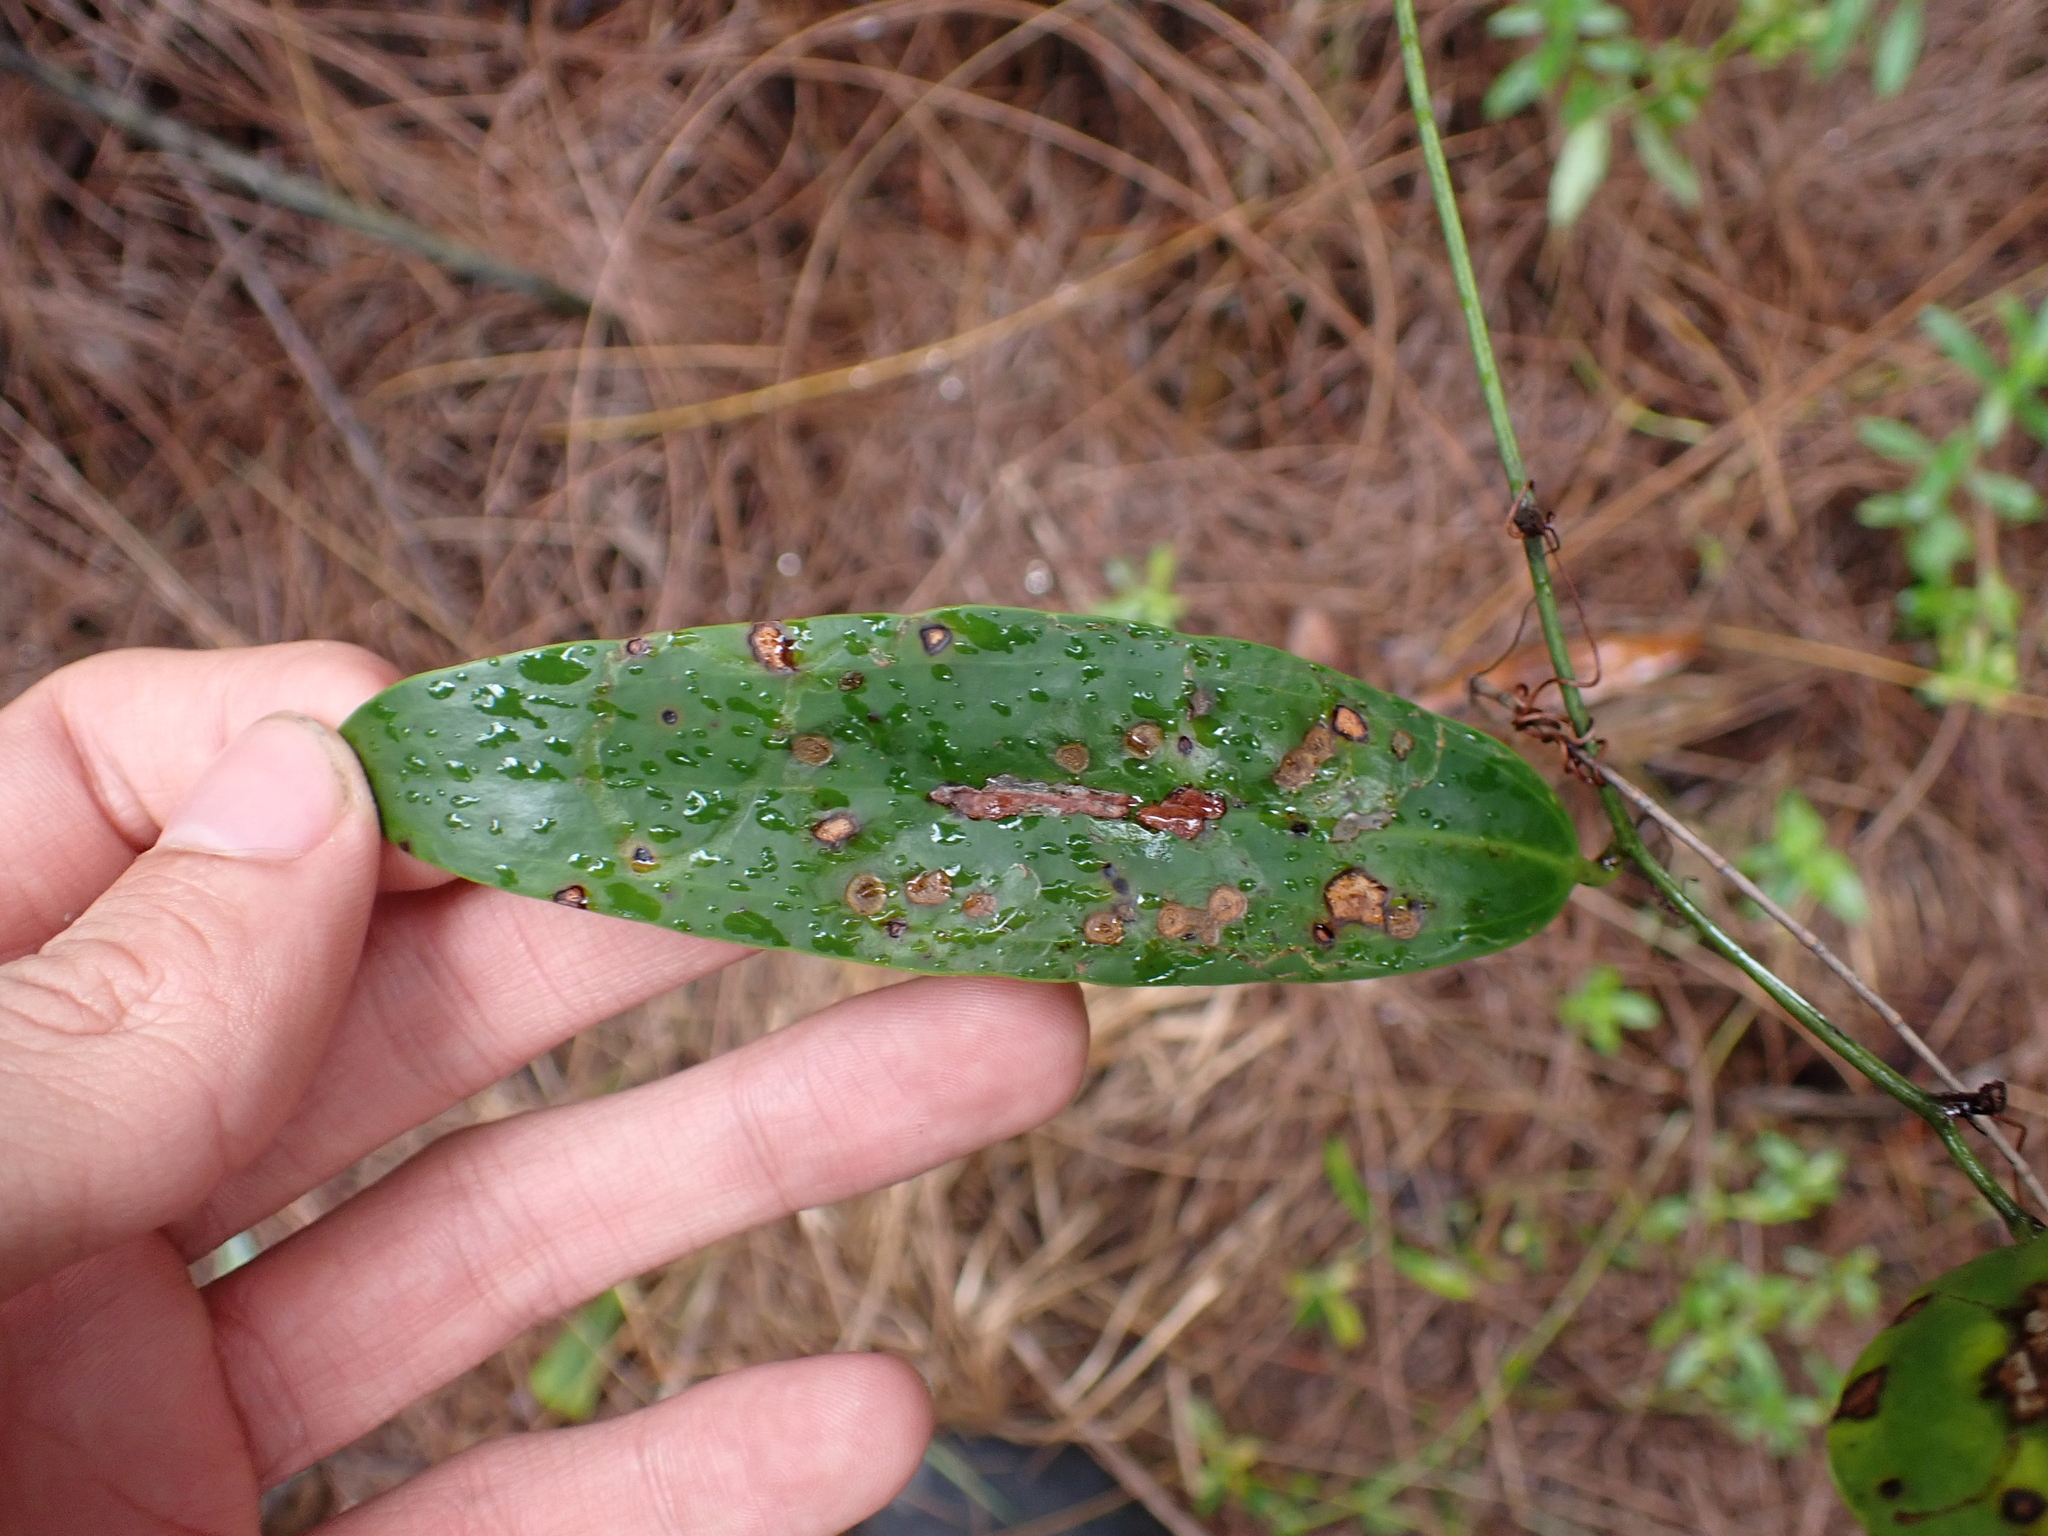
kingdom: Plantae
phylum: Tracheophyta
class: Liliopsida
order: Liliales
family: Smilacaceae
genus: Smilax
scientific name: Smilax laurifolia
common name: Bamboovine
